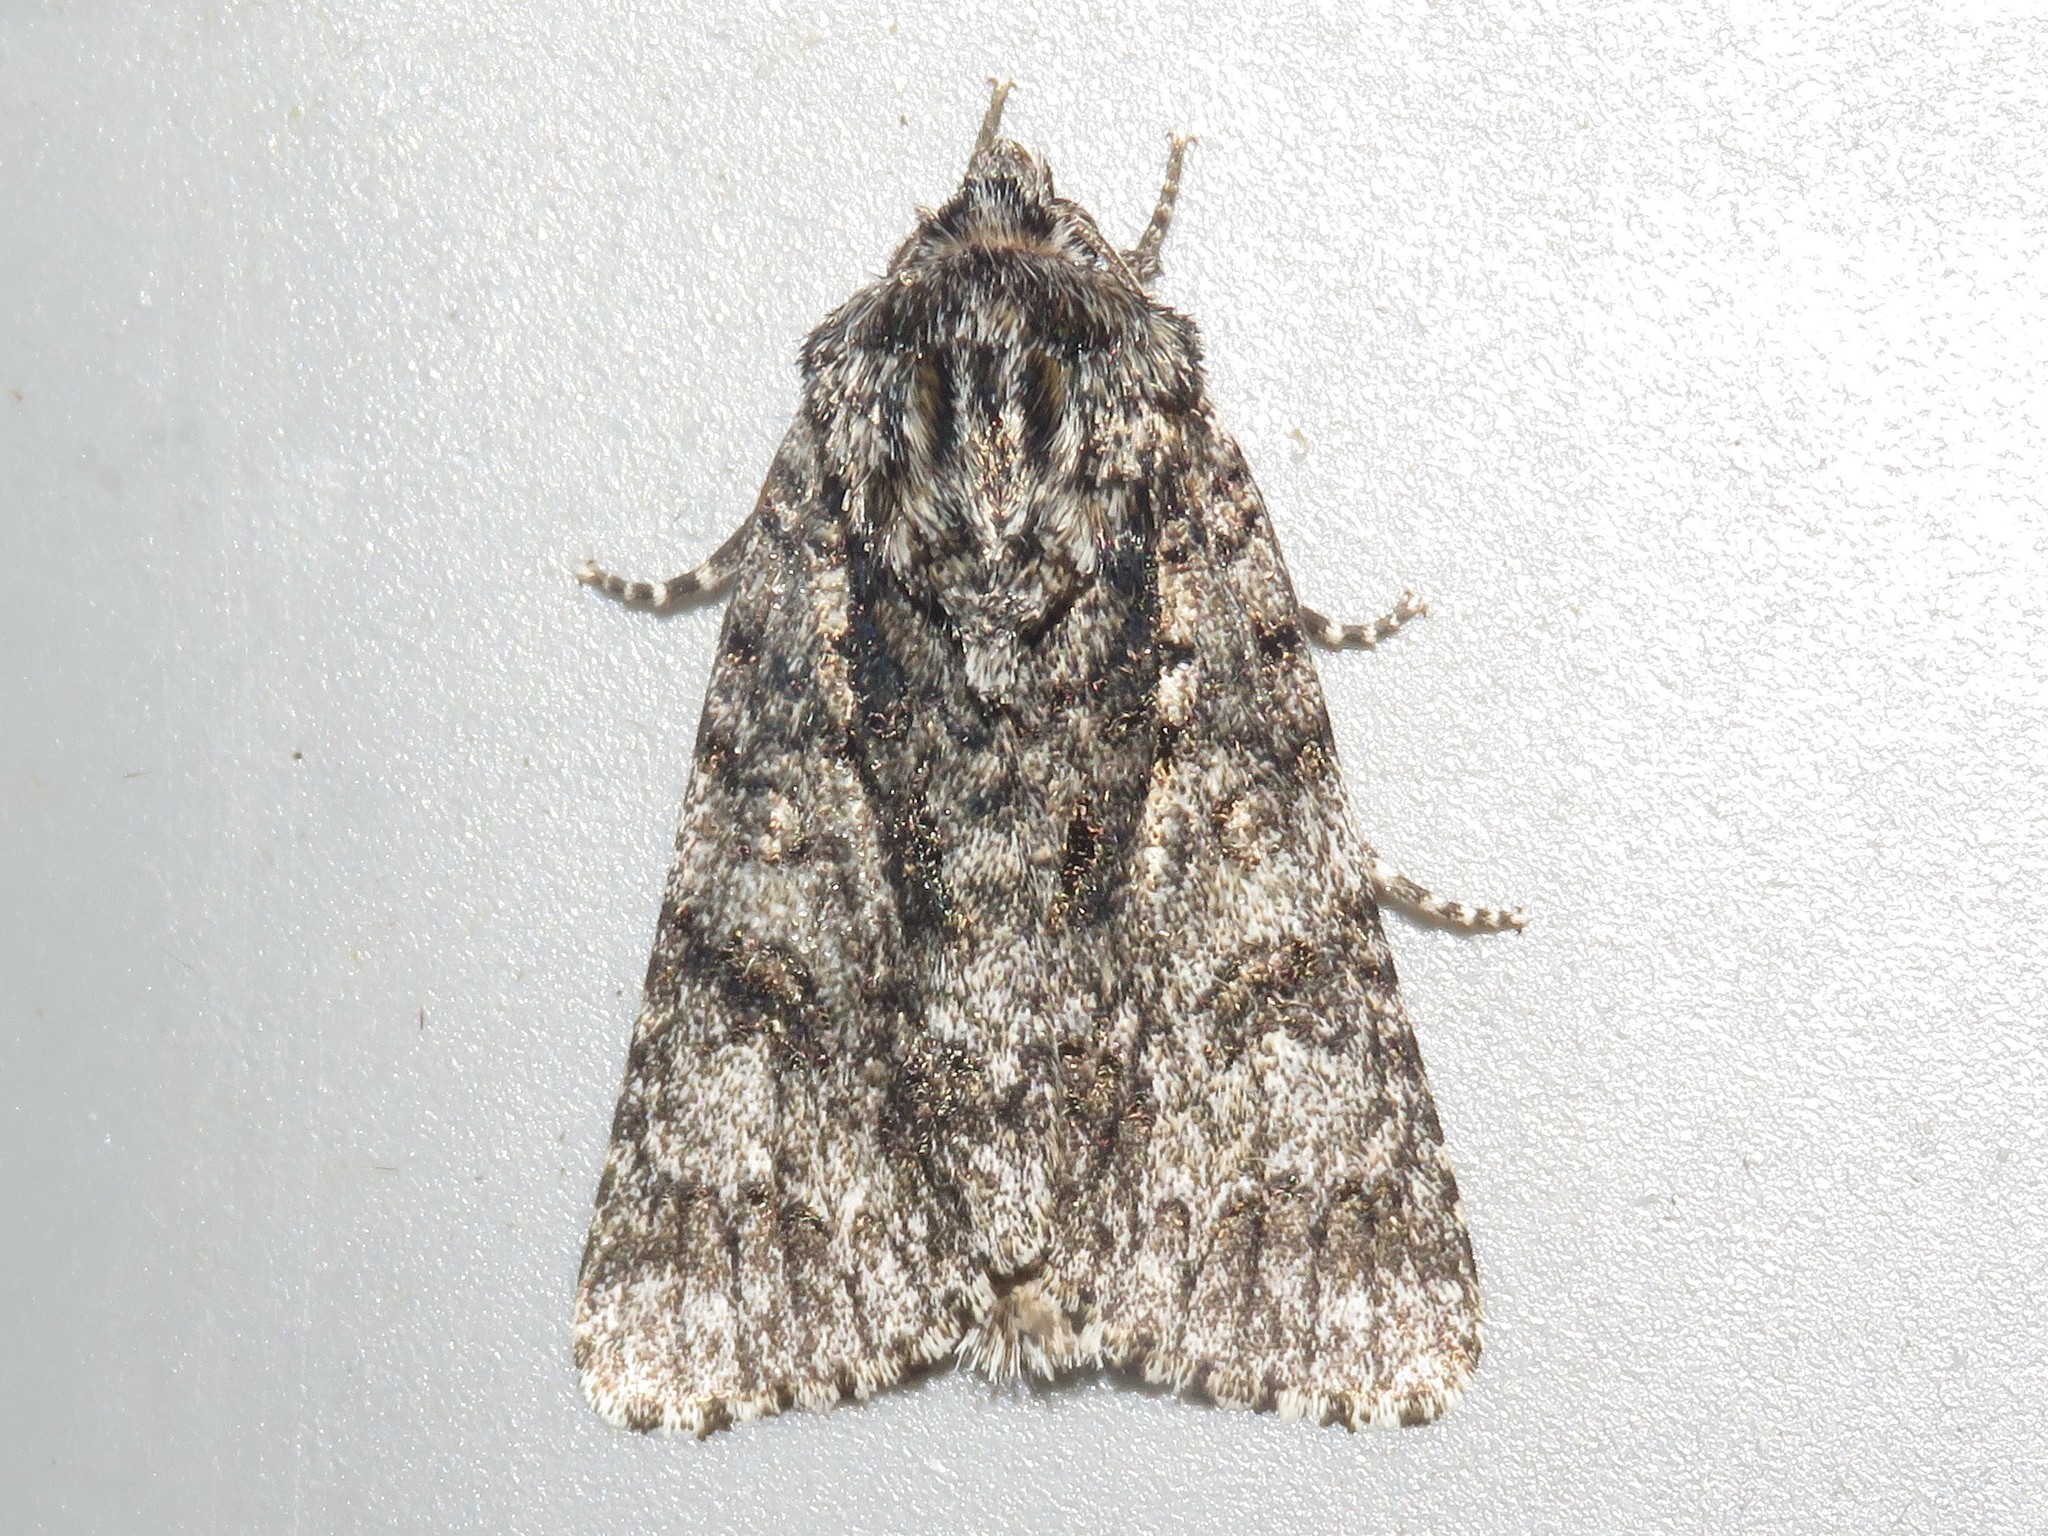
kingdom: Animalia
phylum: Arthropoda
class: Insecta
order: Lepidoptera
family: Noctuidae
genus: Acronicta
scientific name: Acronicta impressa
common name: Impressed dagger
